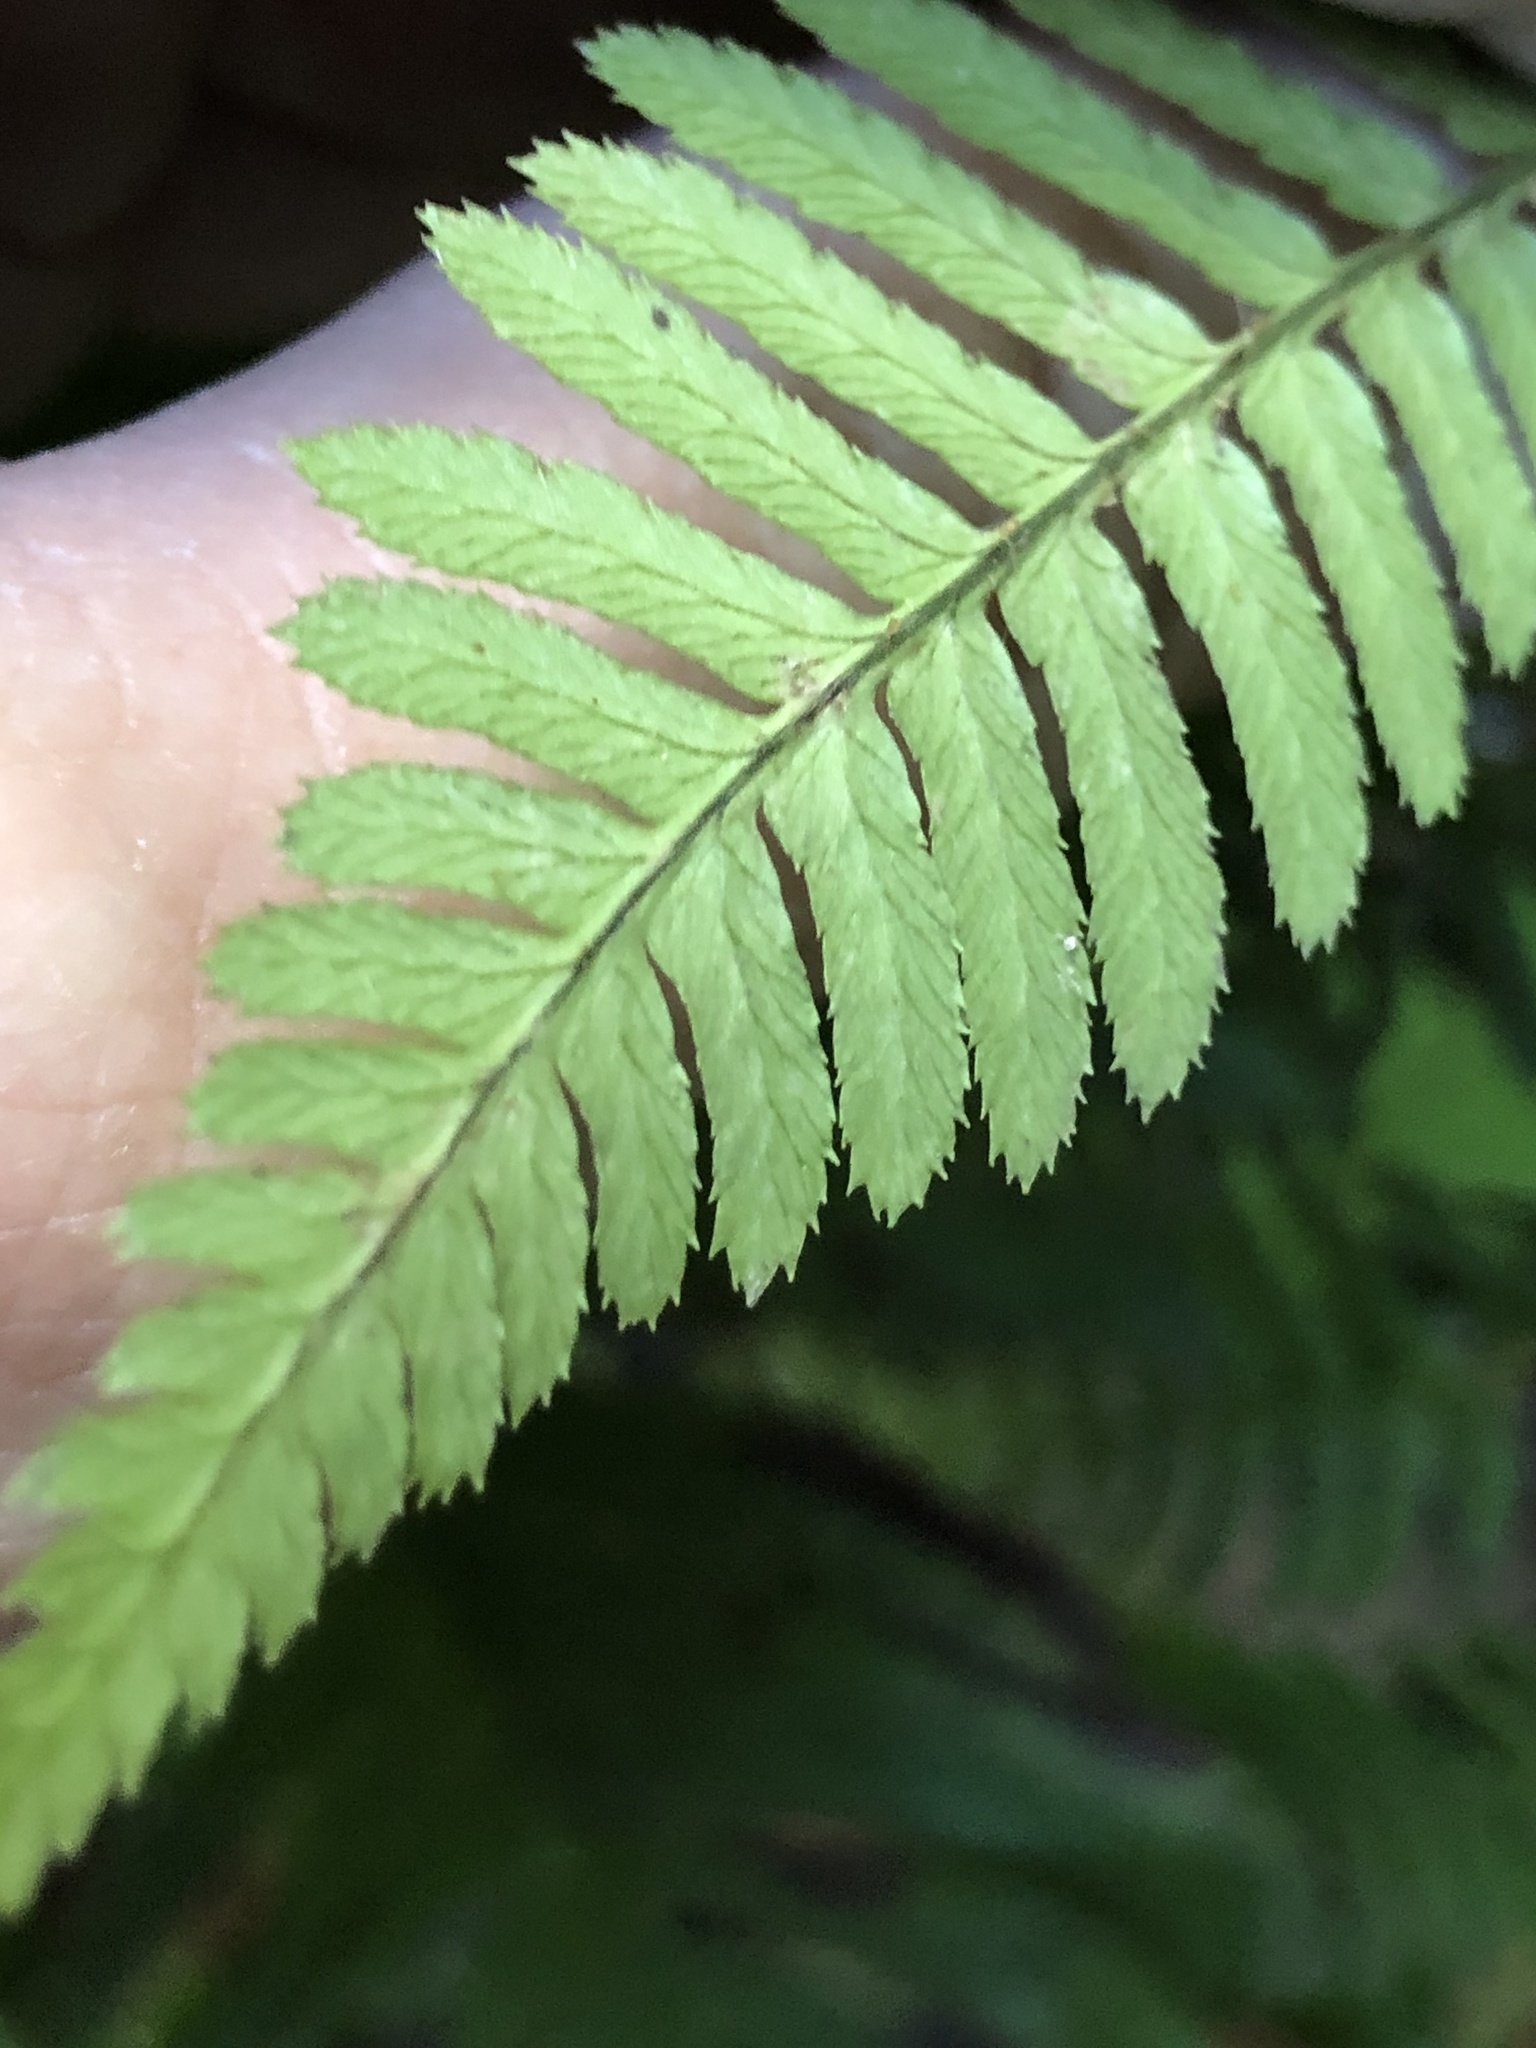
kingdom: Plantae
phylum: Tracheophyta
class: Polypodiopsida
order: Polypodiales
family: Dryopteridaceae
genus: Dryopteris
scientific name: Dryopteris arguta
